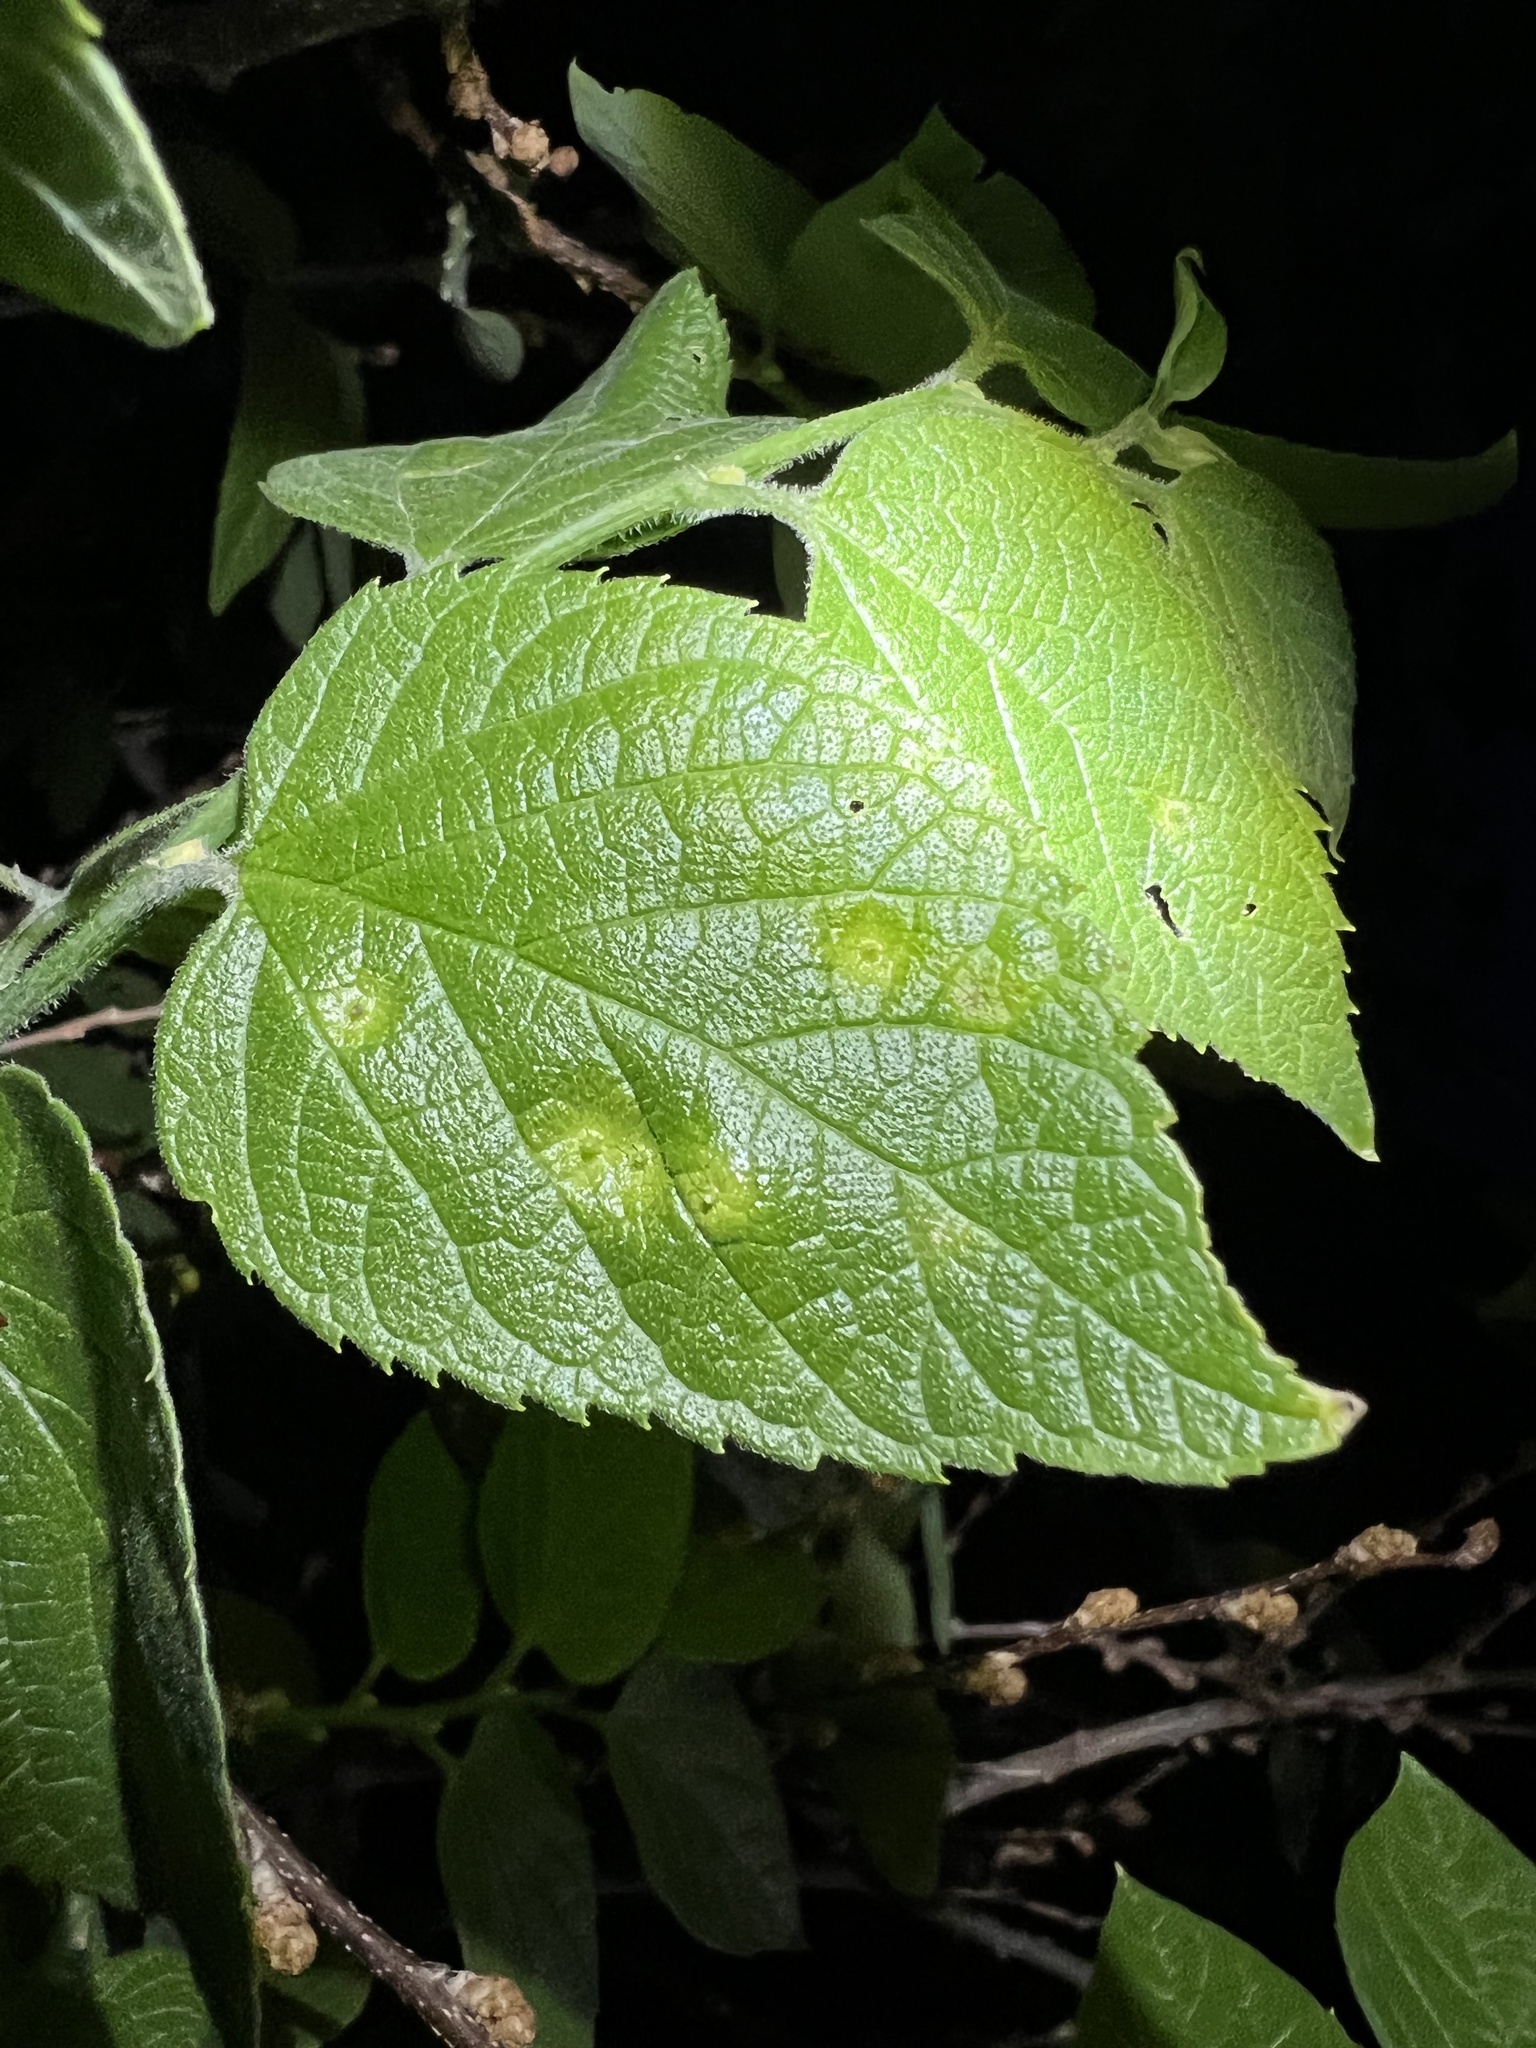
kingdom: Animalia
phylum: Arthropoda
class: Insecta
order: Hemiptera
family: Aphalaridae
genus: Pachypsylla
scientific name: Pachypsylla celtidismamma
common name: Hackberry nipplegall psyllid
